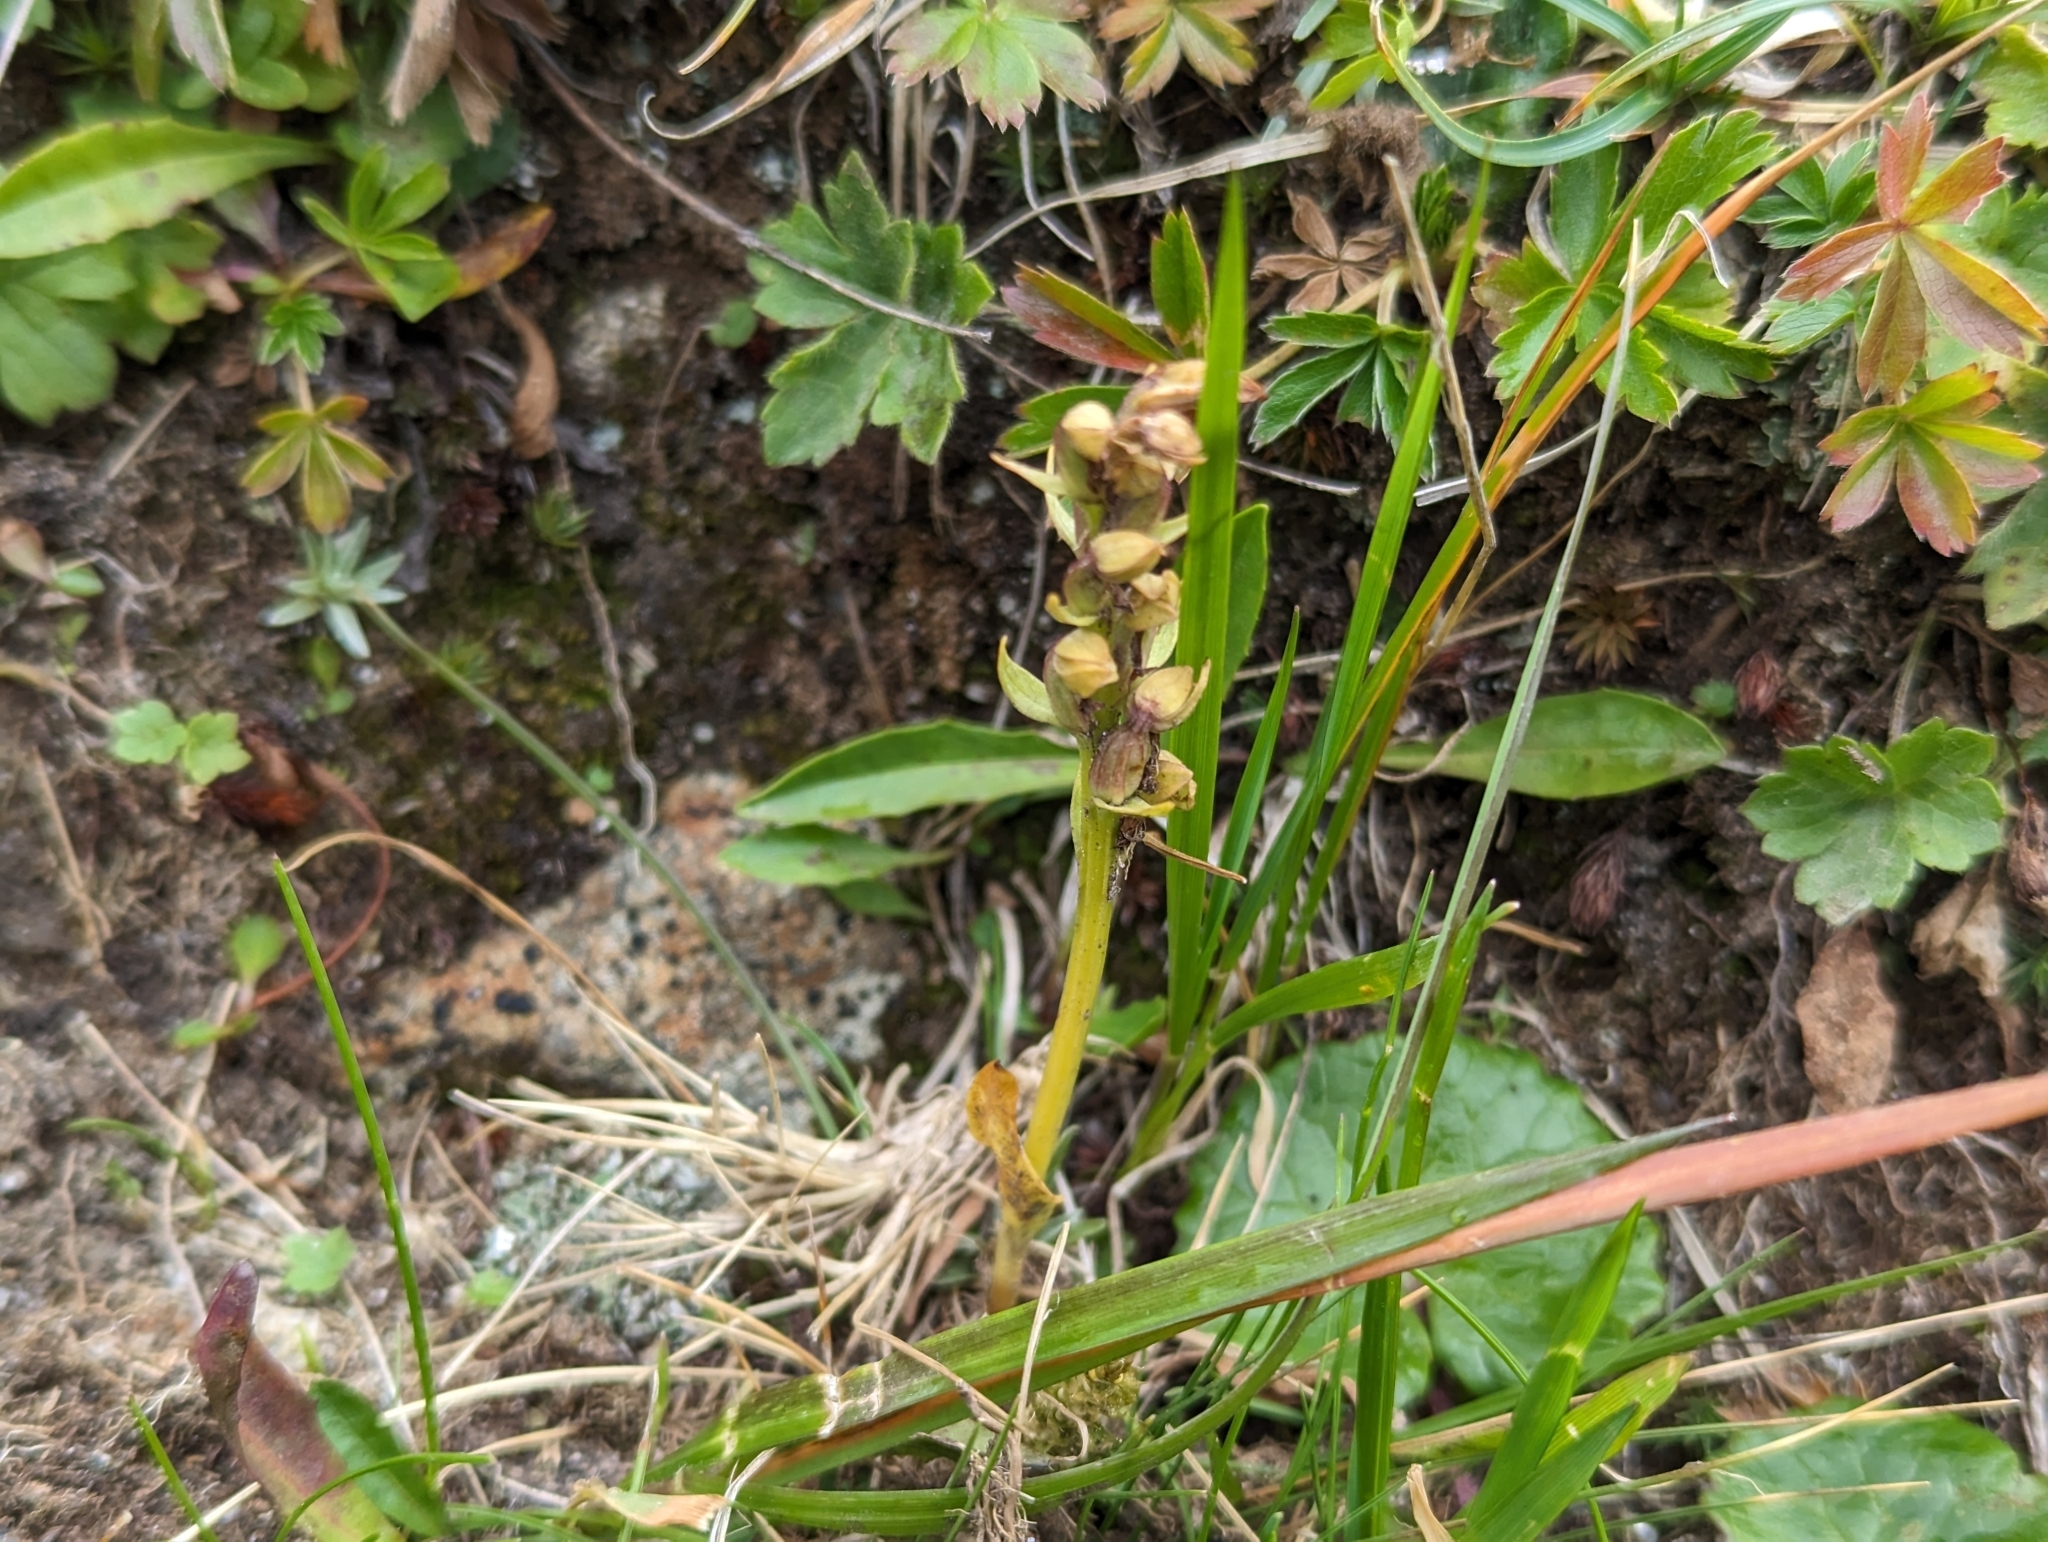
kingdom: Plantae
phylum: Tracheophyta
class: Liliopsida
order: Asparagales
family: Orchidaceae
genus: Dactylorhiza
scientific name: Dactylorhiza viridis
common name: Longbract frog orchid
